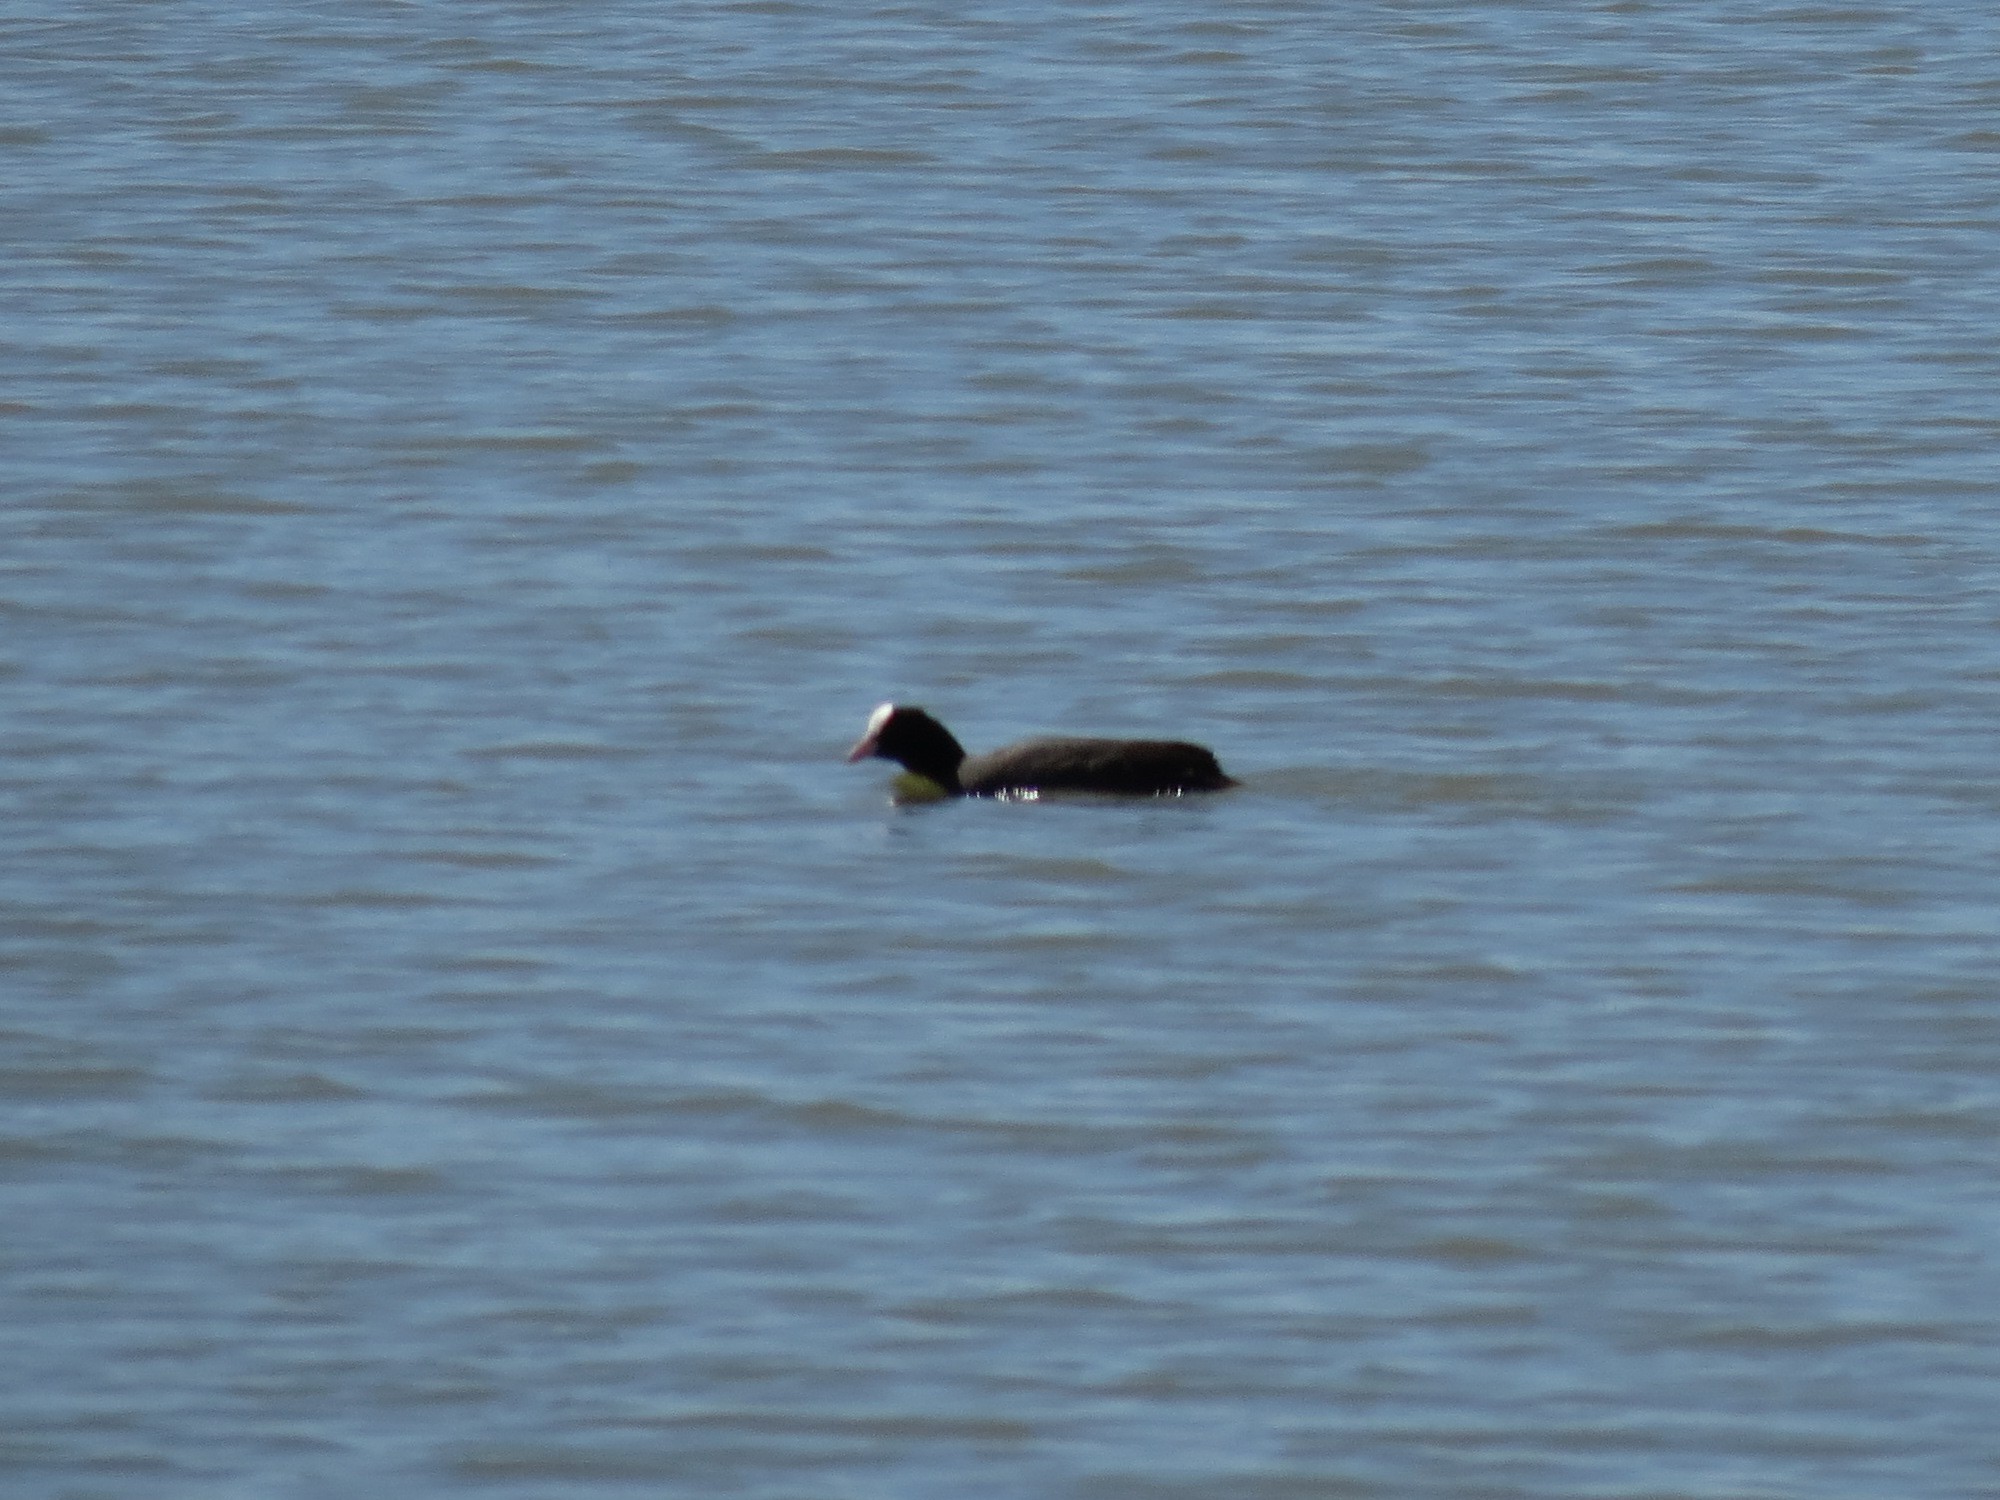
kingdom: Animalia
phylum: Chordata
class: Aves
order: Gruiformes
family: Rallidae
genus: Fulica
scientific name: Fulica atra
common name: Eurasian coot
